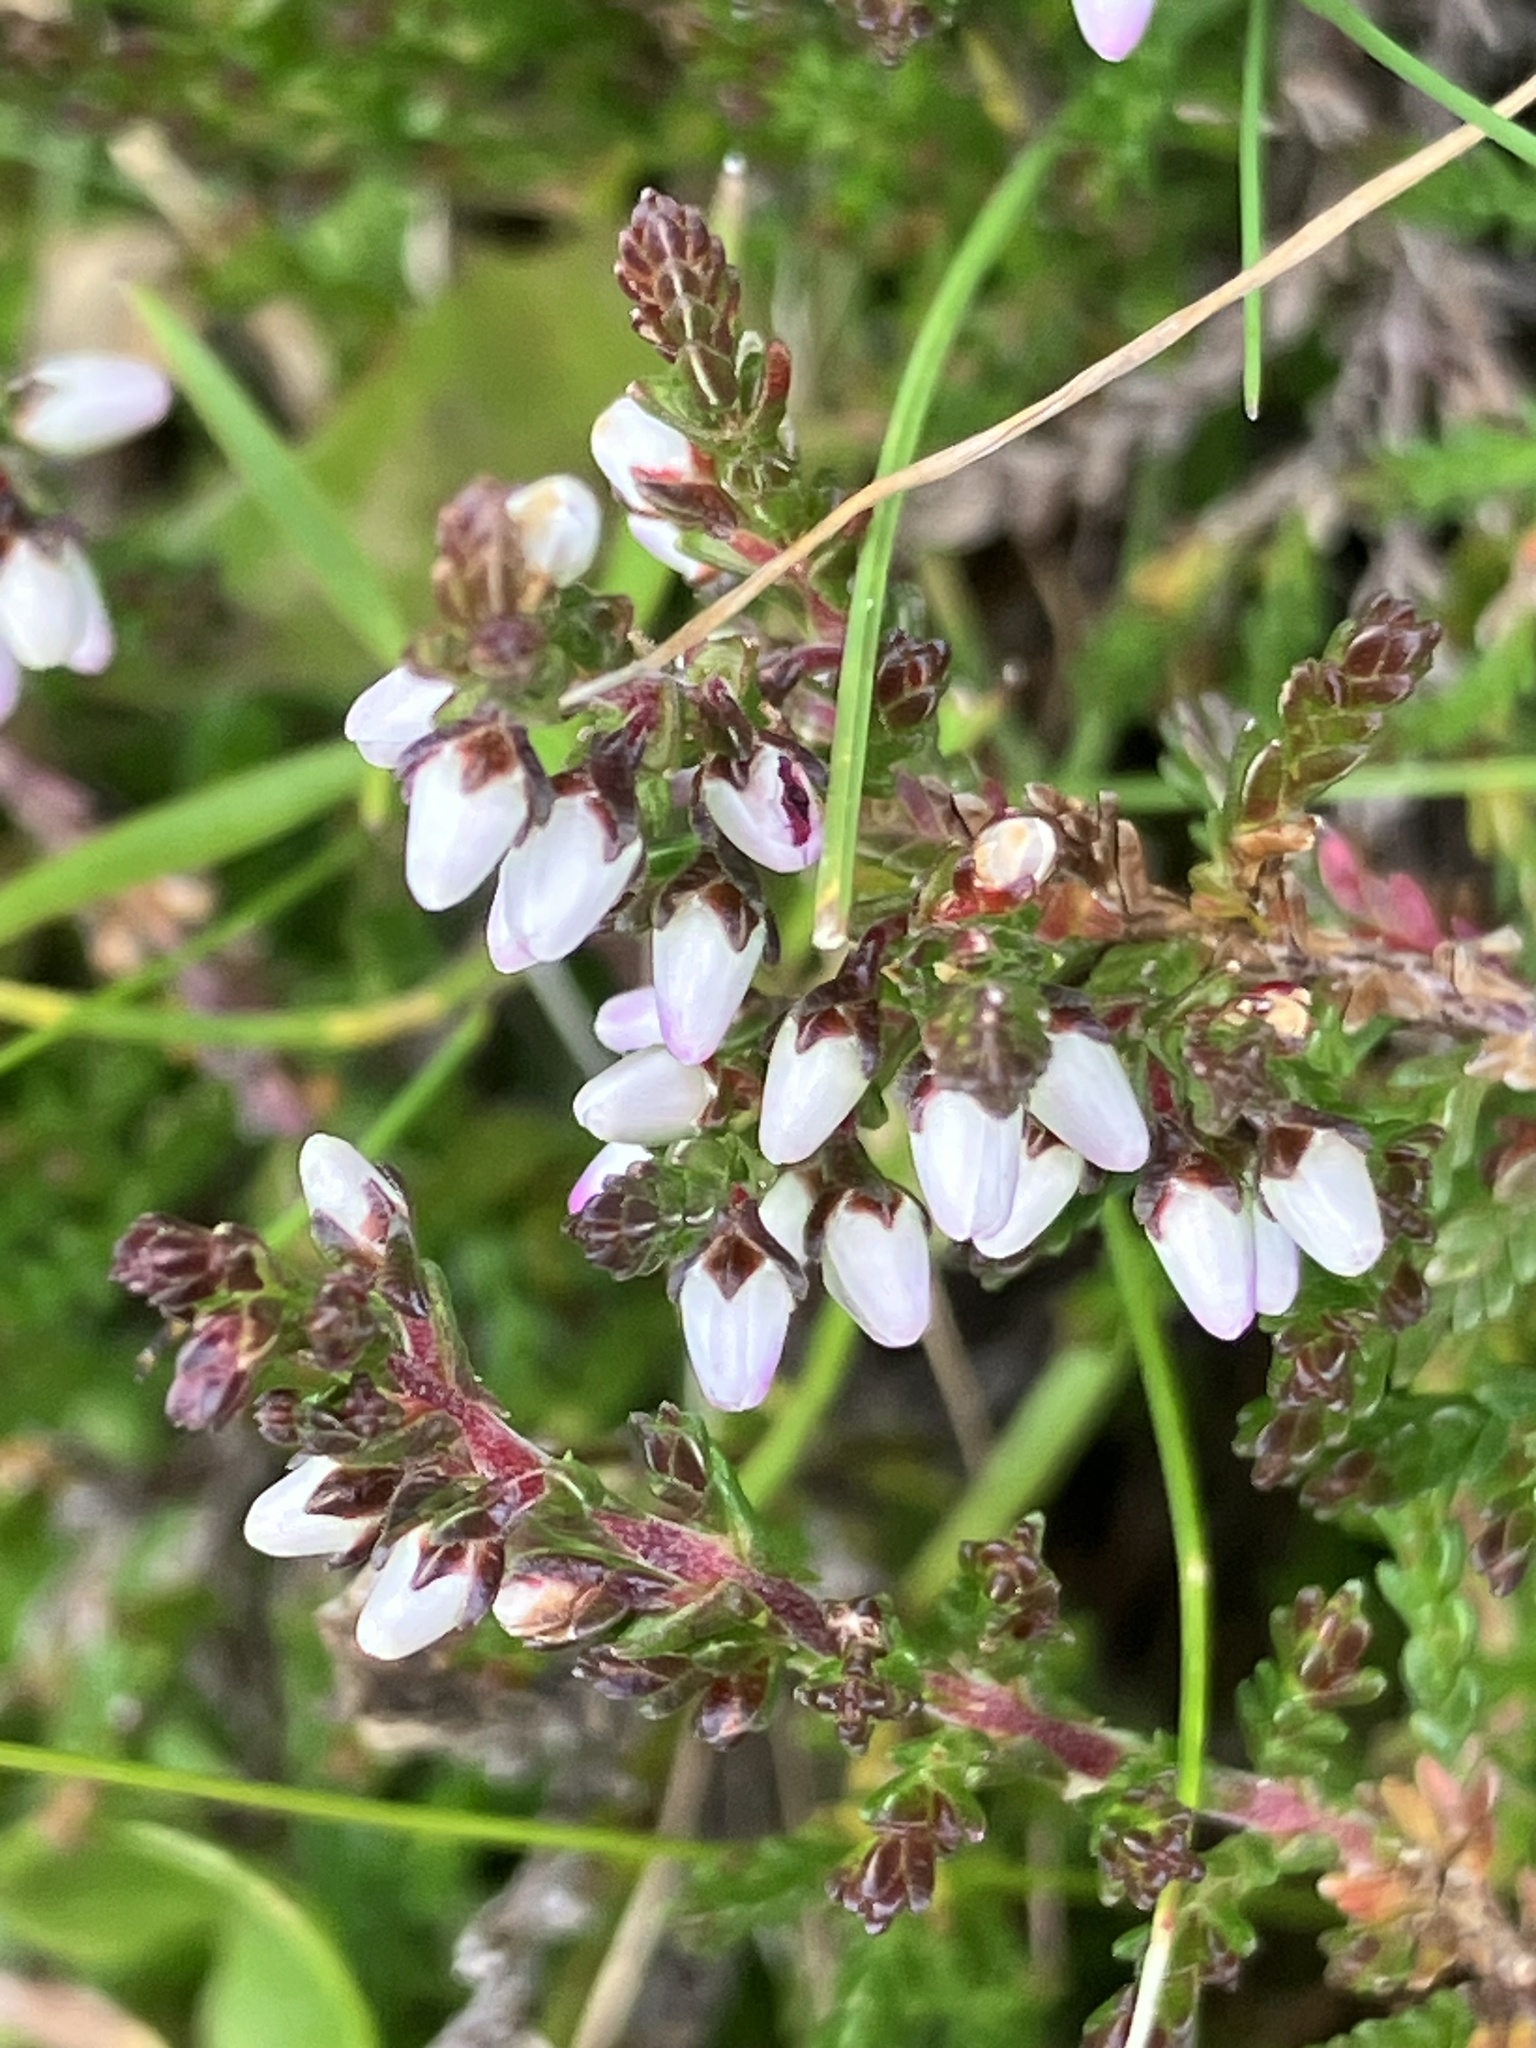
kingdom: Plantae
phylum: Tracheophyta
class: Magnoliopsida
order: Ericales
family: Ericaceae
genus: Calluna
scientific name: Calluna vulgaris
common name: Heather
